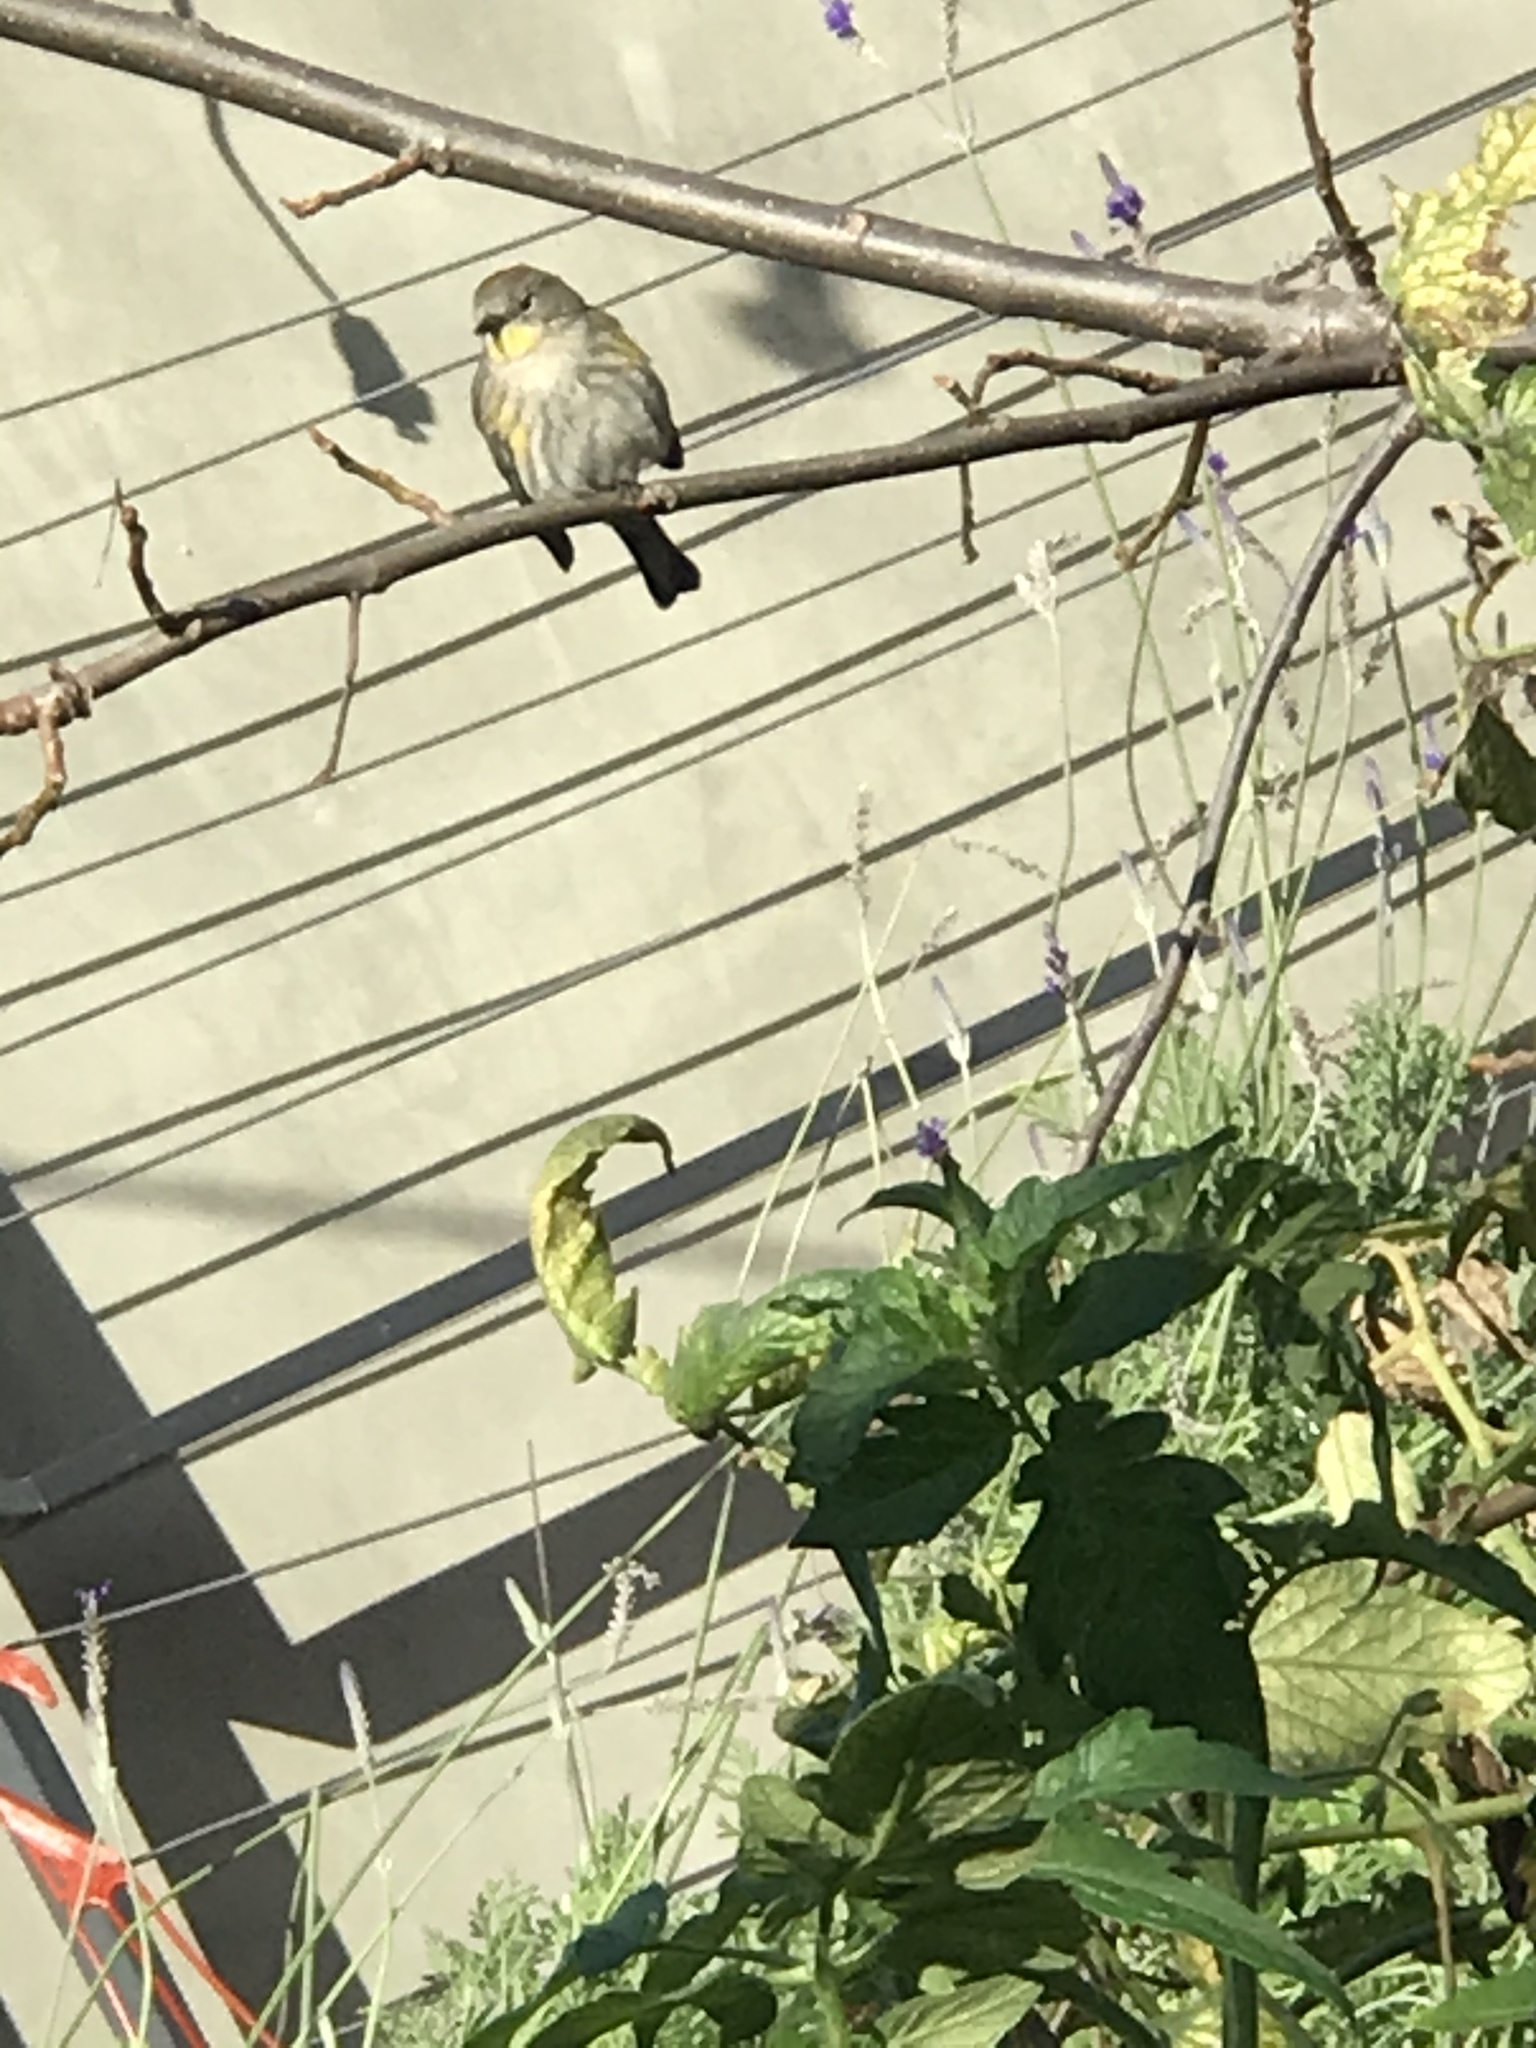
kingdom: Animalia
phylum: Chordata
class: Aves
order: Passeriformes
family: Parulidae
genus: Setophaga
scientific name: Setophaga coronata
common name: Myrtle warbler
